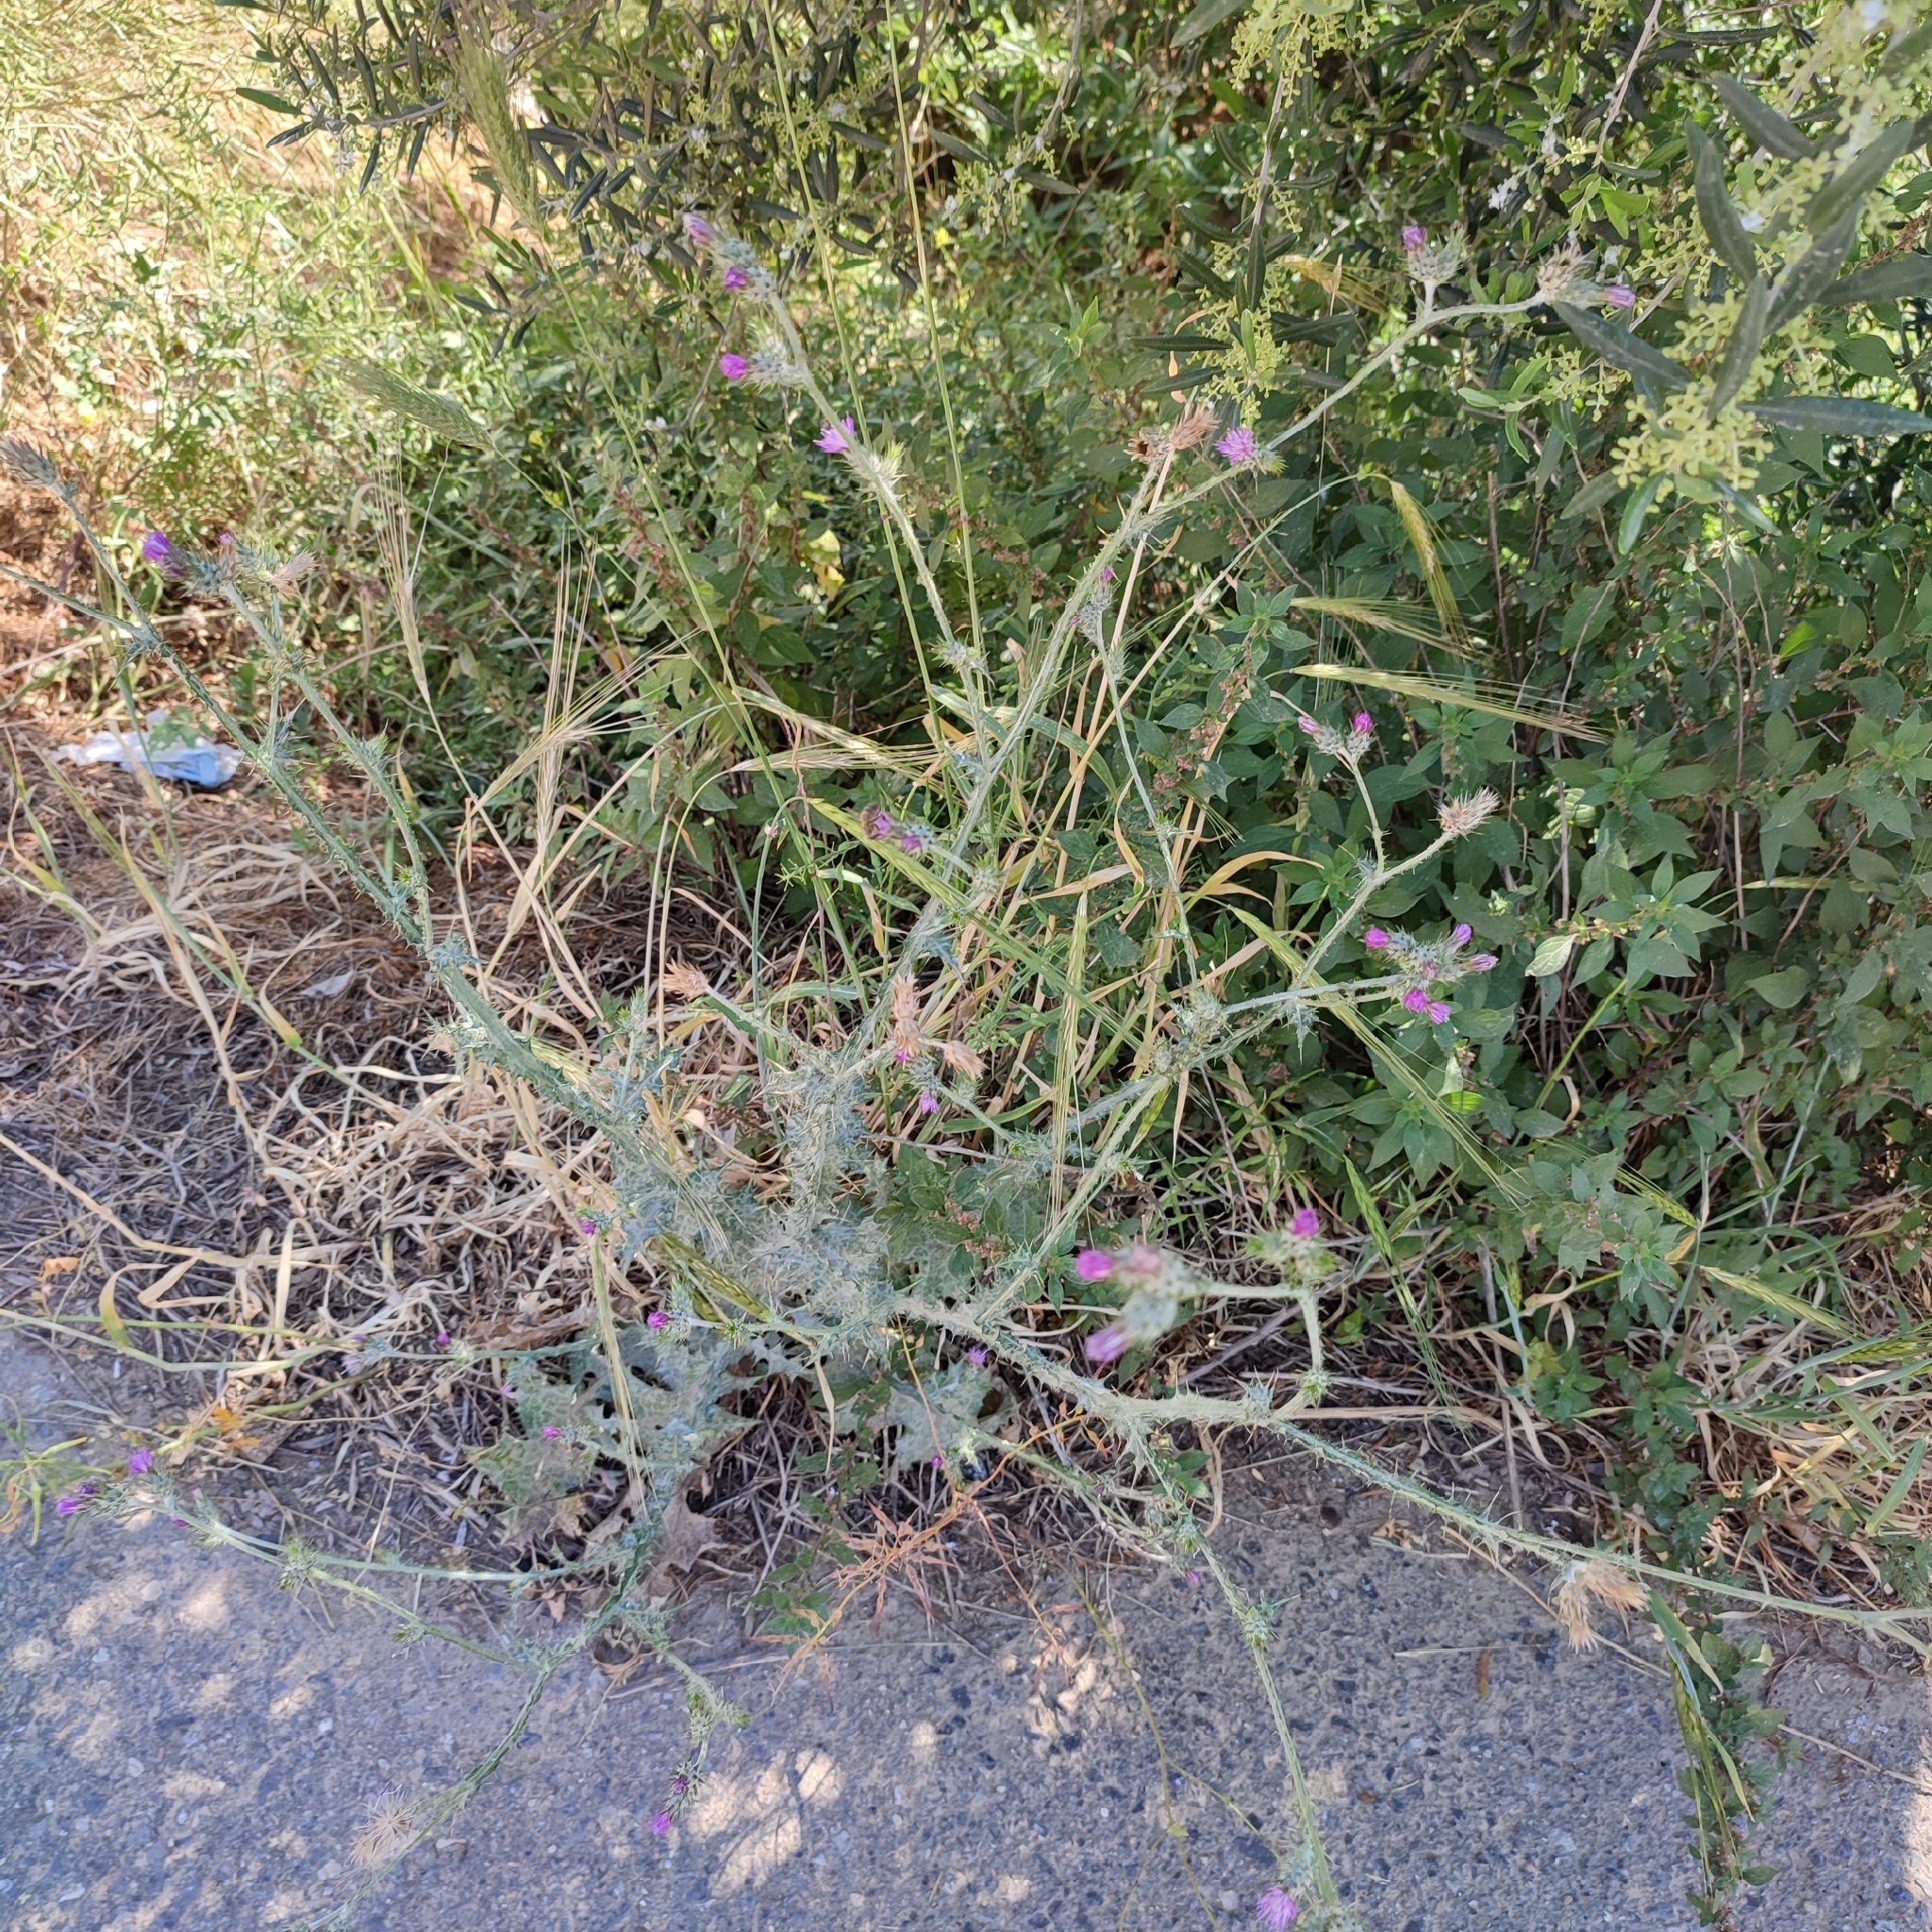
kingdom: Plantae
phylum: Tracheophyta
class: Magnoliopsida
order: Asterales
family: Asteraceae
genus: Carduus
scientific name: Carduus pycnocephalus
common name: Plymouth thistle
